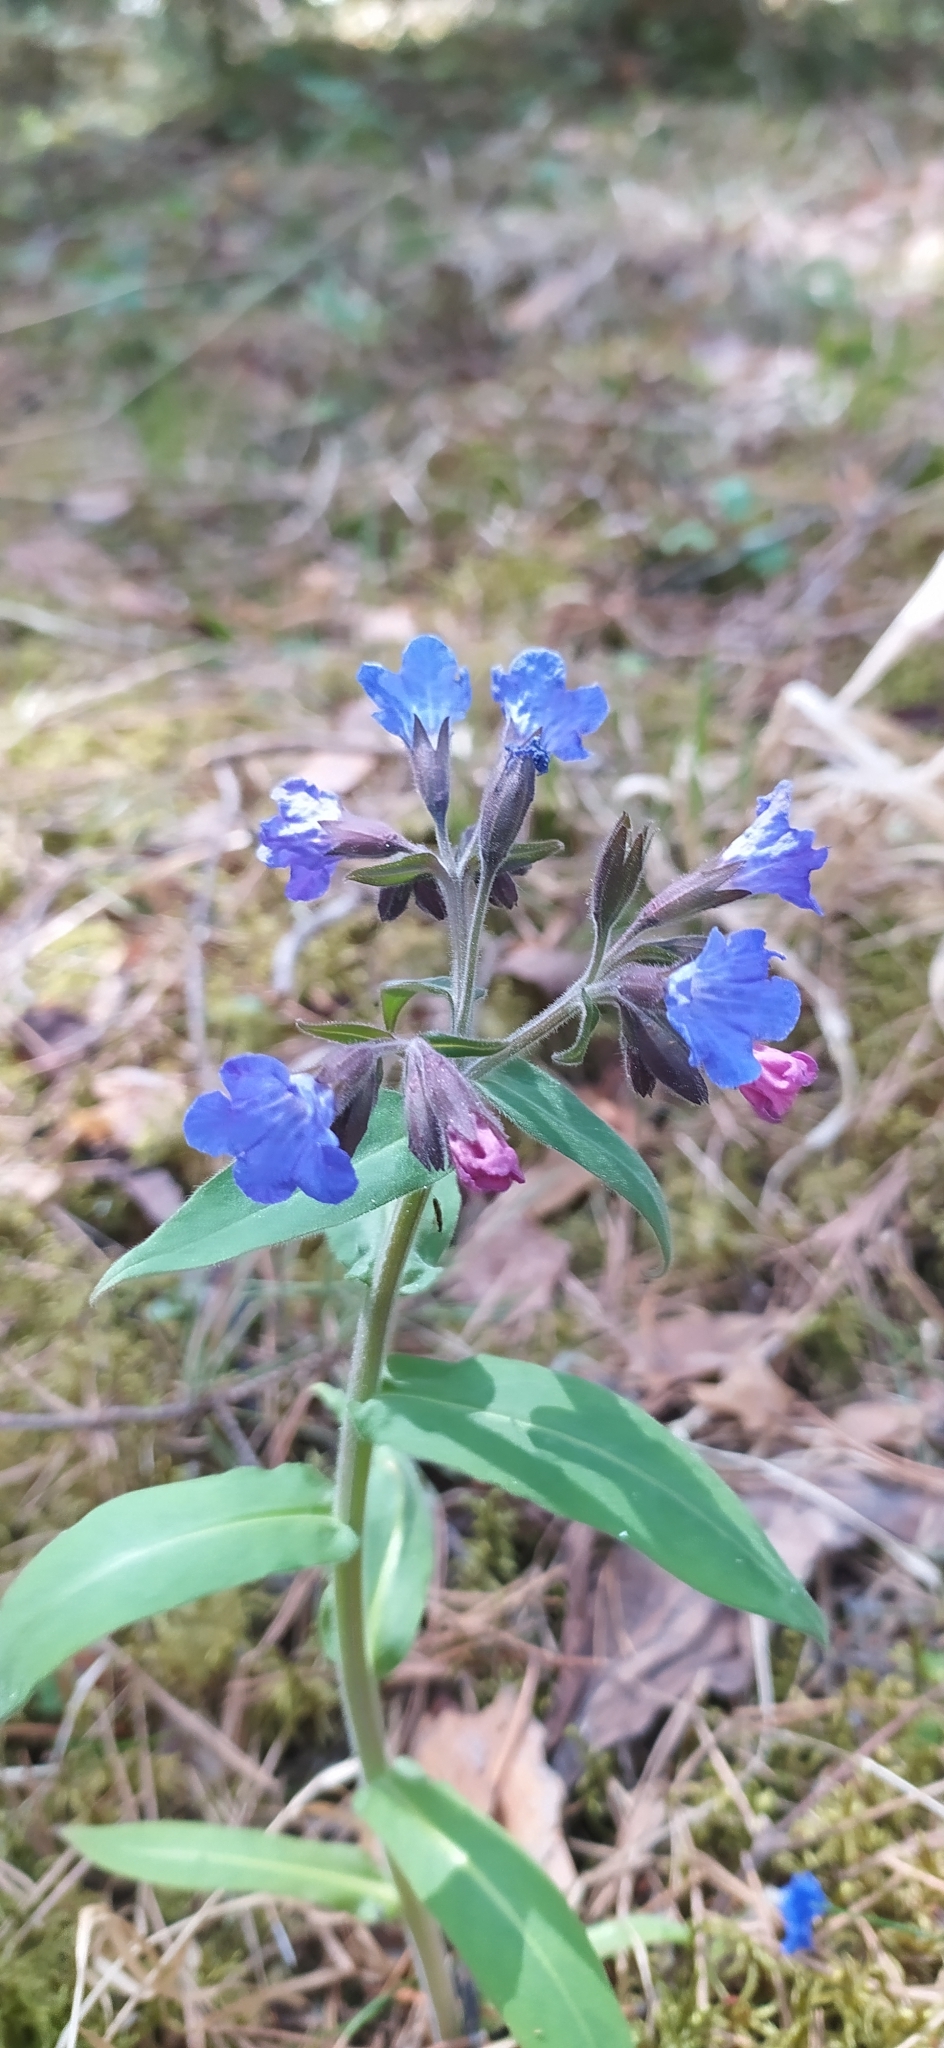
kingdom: Plantae
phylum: Tracheophyta
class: Magnoliopsida
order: Boraginales
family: Boraginaceae
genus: Pulmonaria
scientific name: Pulmonaria mollis
